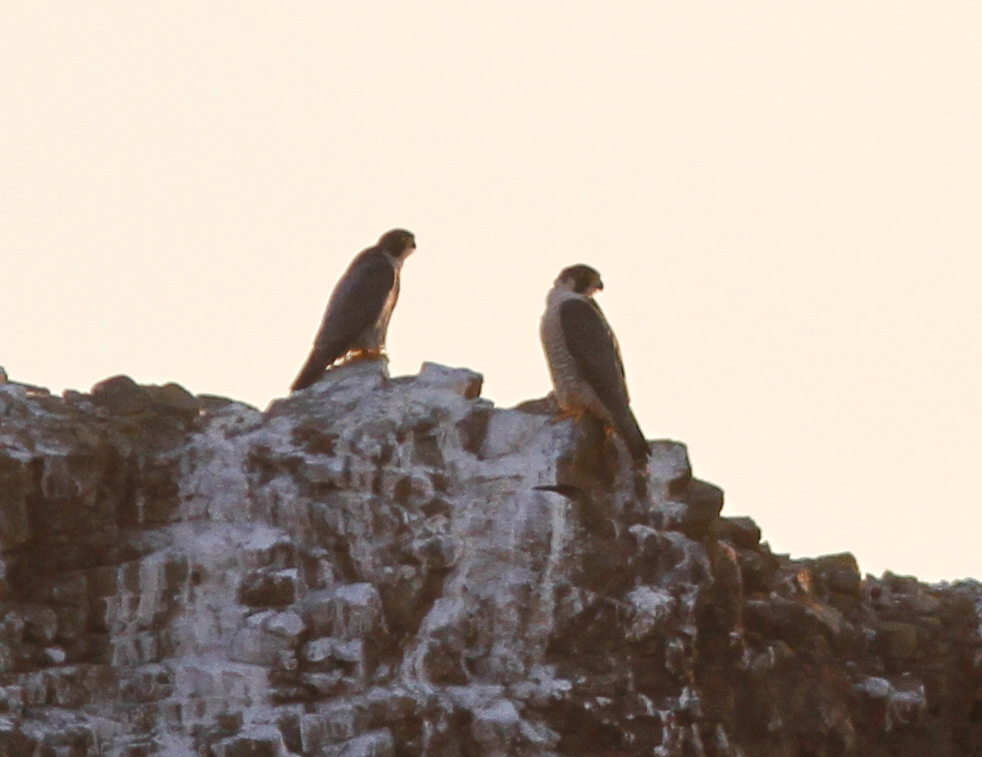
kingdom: Animalia
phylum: Chordata
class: Aves
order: Falconiformes
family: Falconidae
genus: Falco
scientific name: Falco peregrinus
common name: Peregrine falcon
